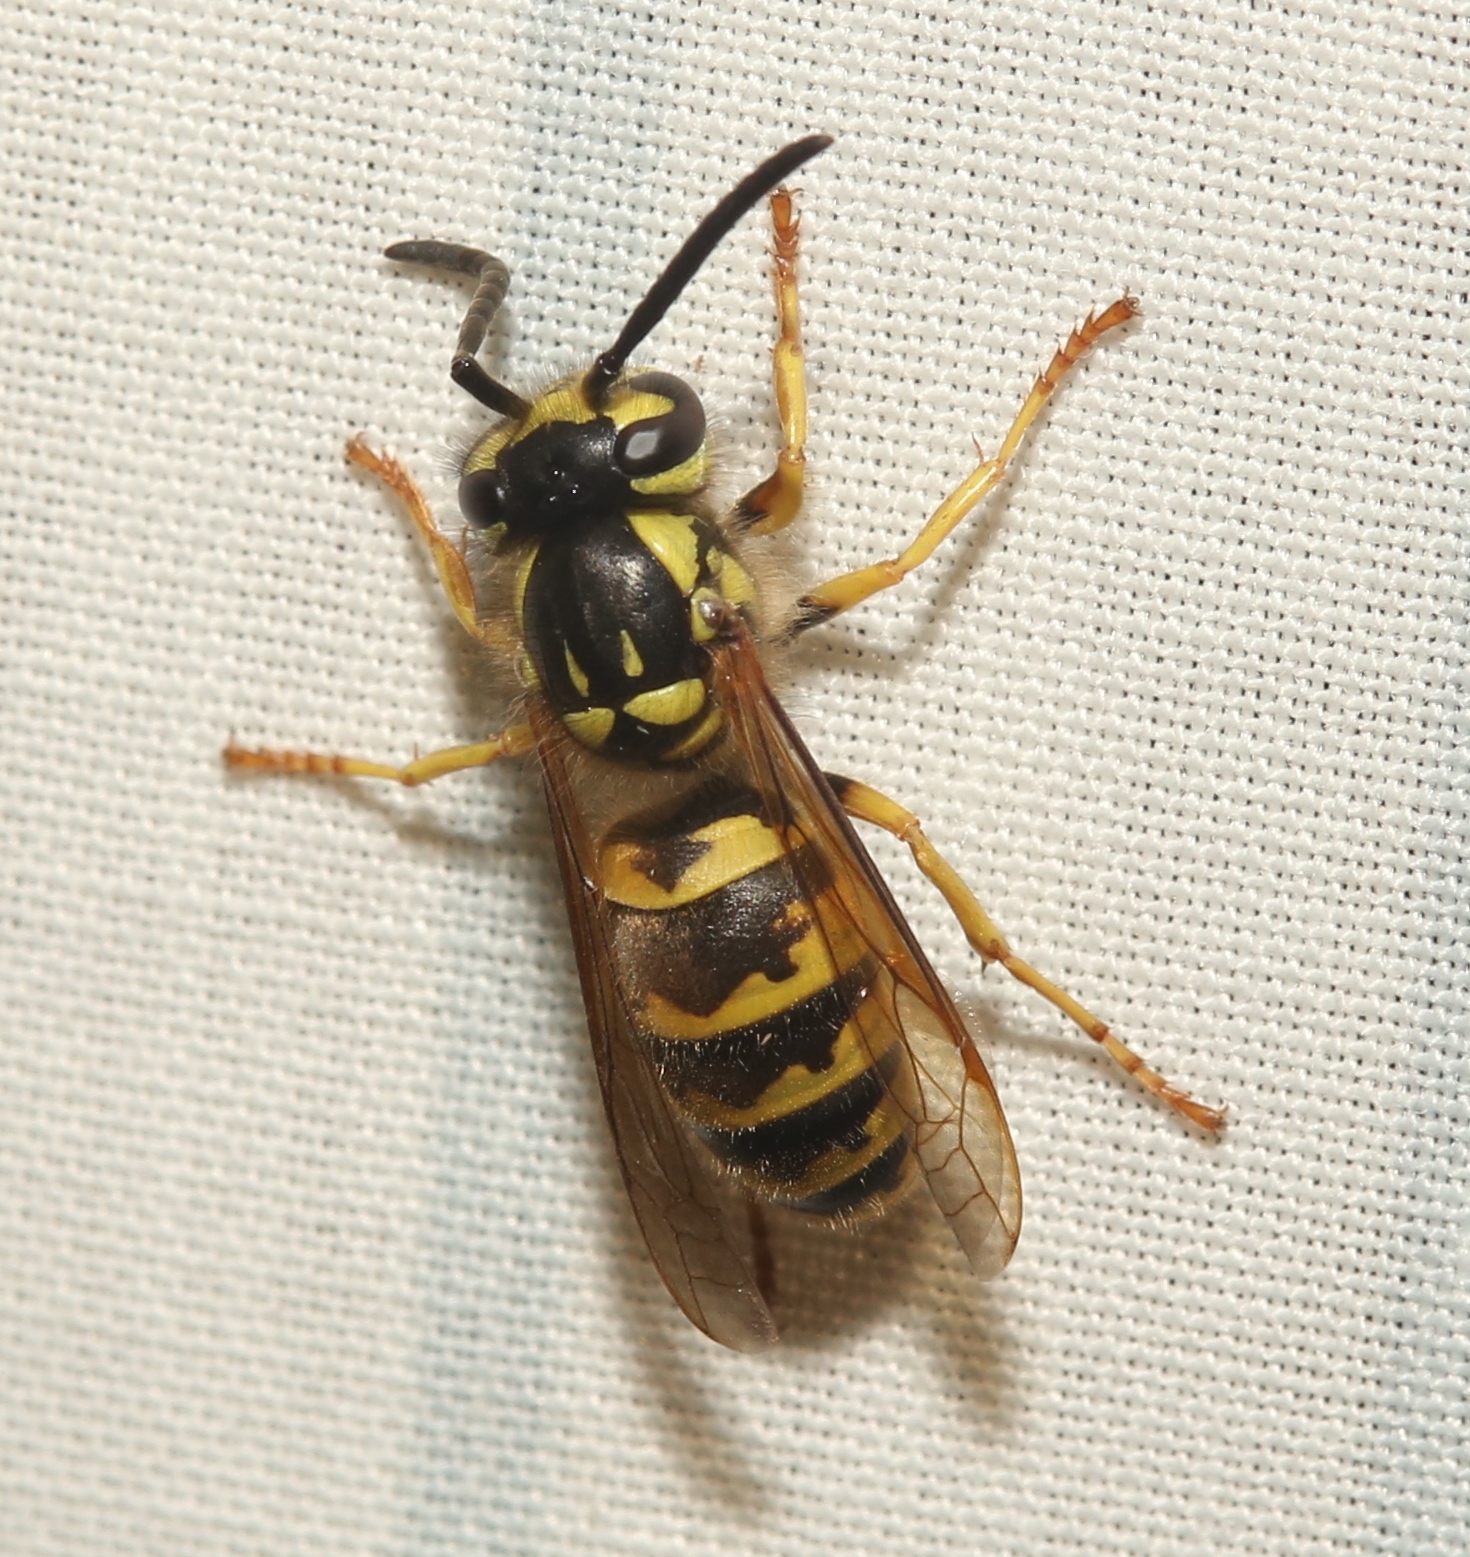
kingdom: Animalia
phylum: Arthropoda
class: Insecta
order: Hymenoptera
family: Vespidae
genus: Vespula
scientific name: Vespula flavopilosa
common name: Downy yellowjacket
